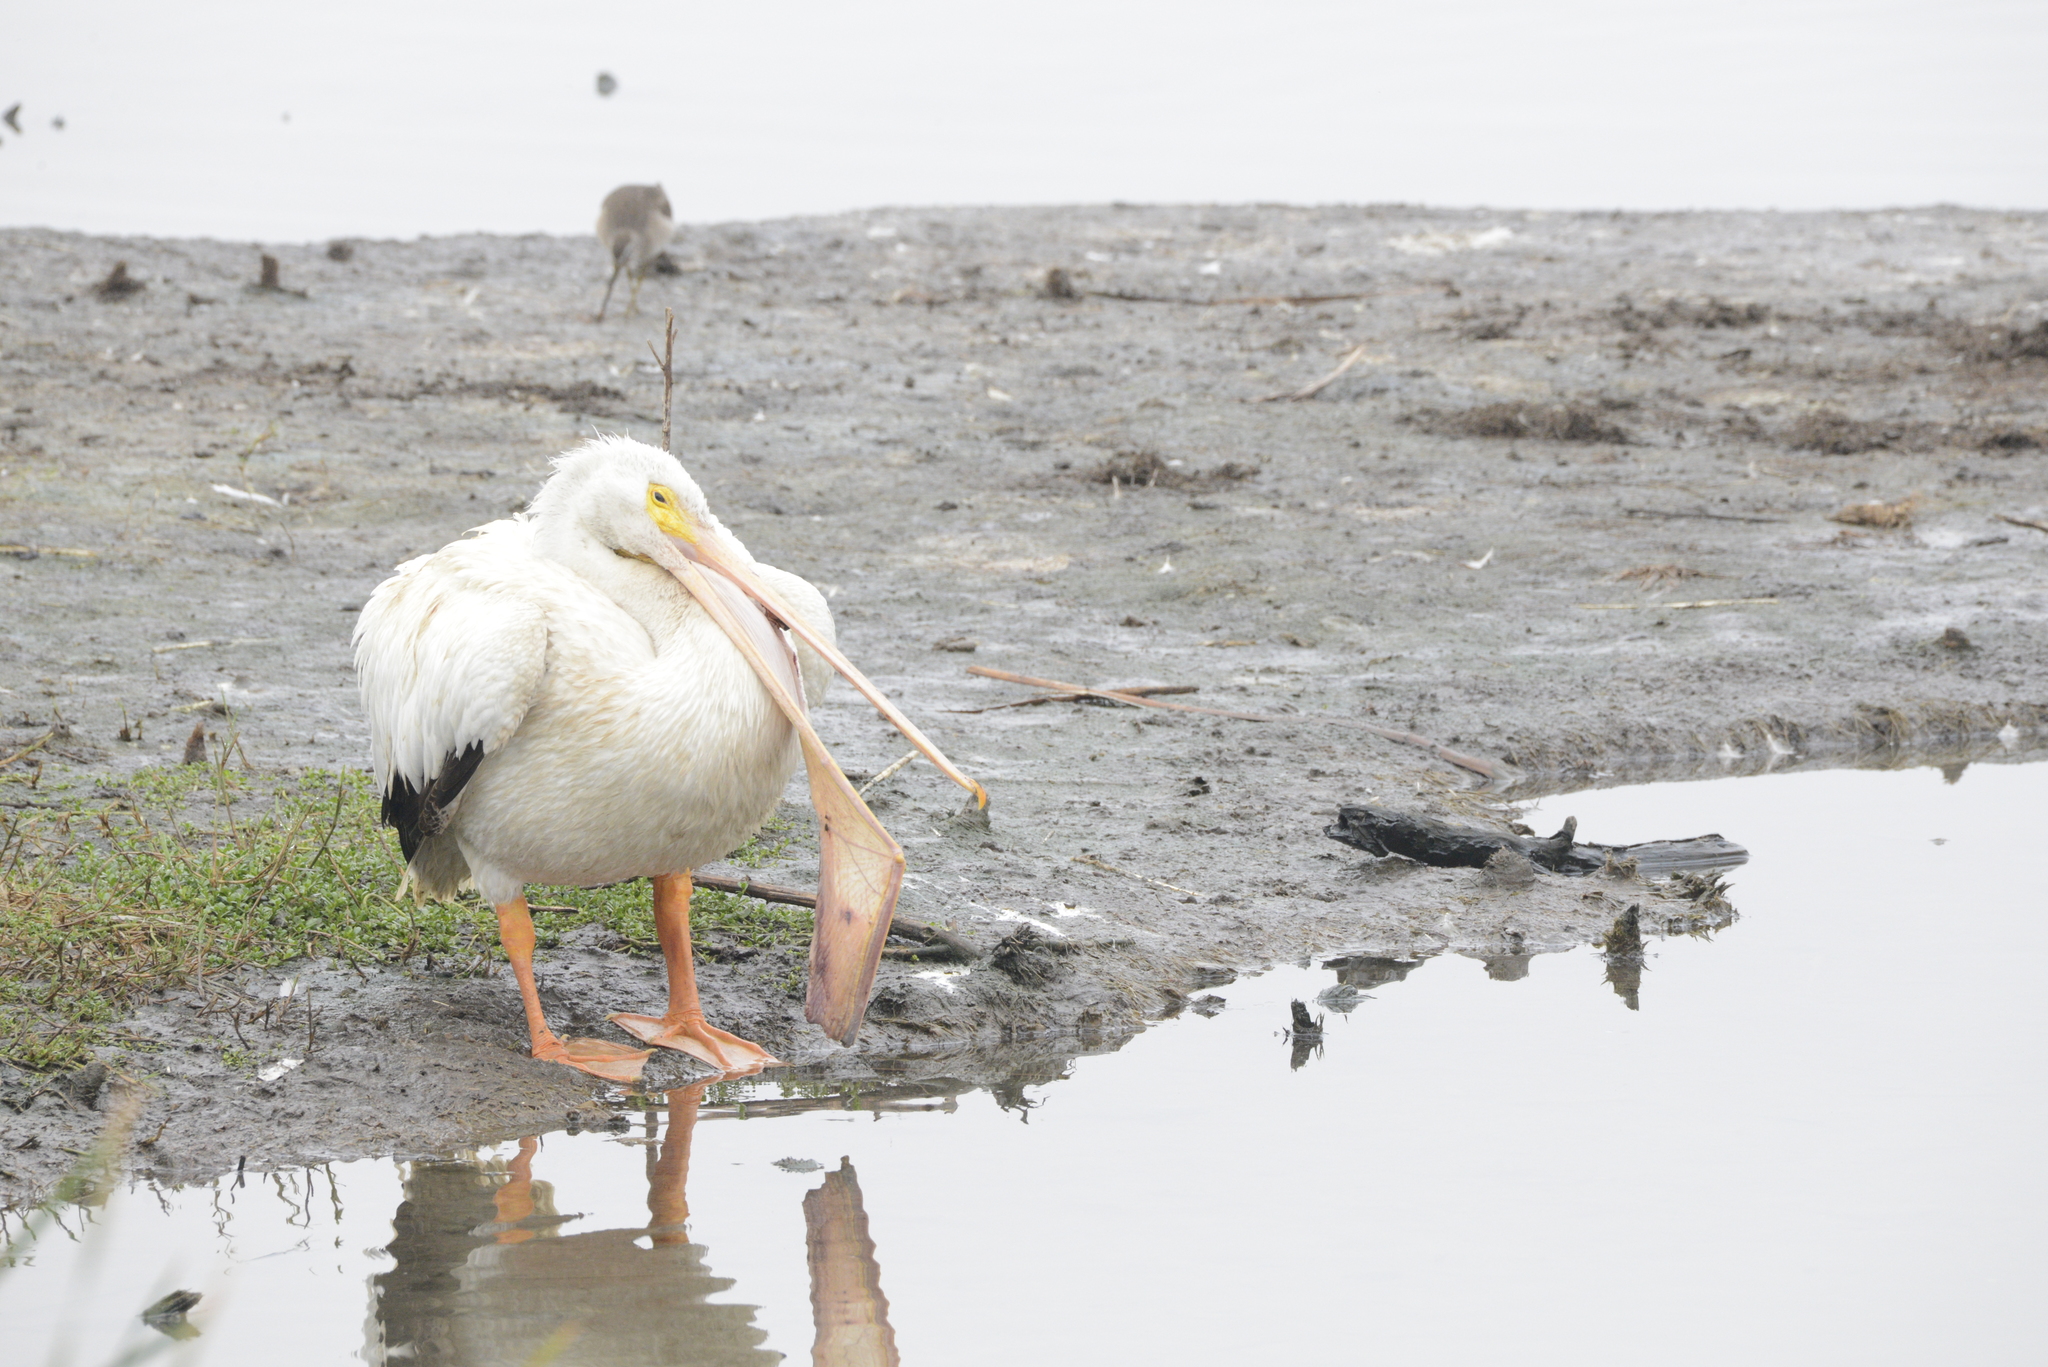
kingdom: Animalia
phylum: Chordata
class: Aves
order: Pelecaniformes
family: Pelecanidae
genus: Pelecanus
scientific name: Pelecanus erythrorhynchos
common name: American white pelican
